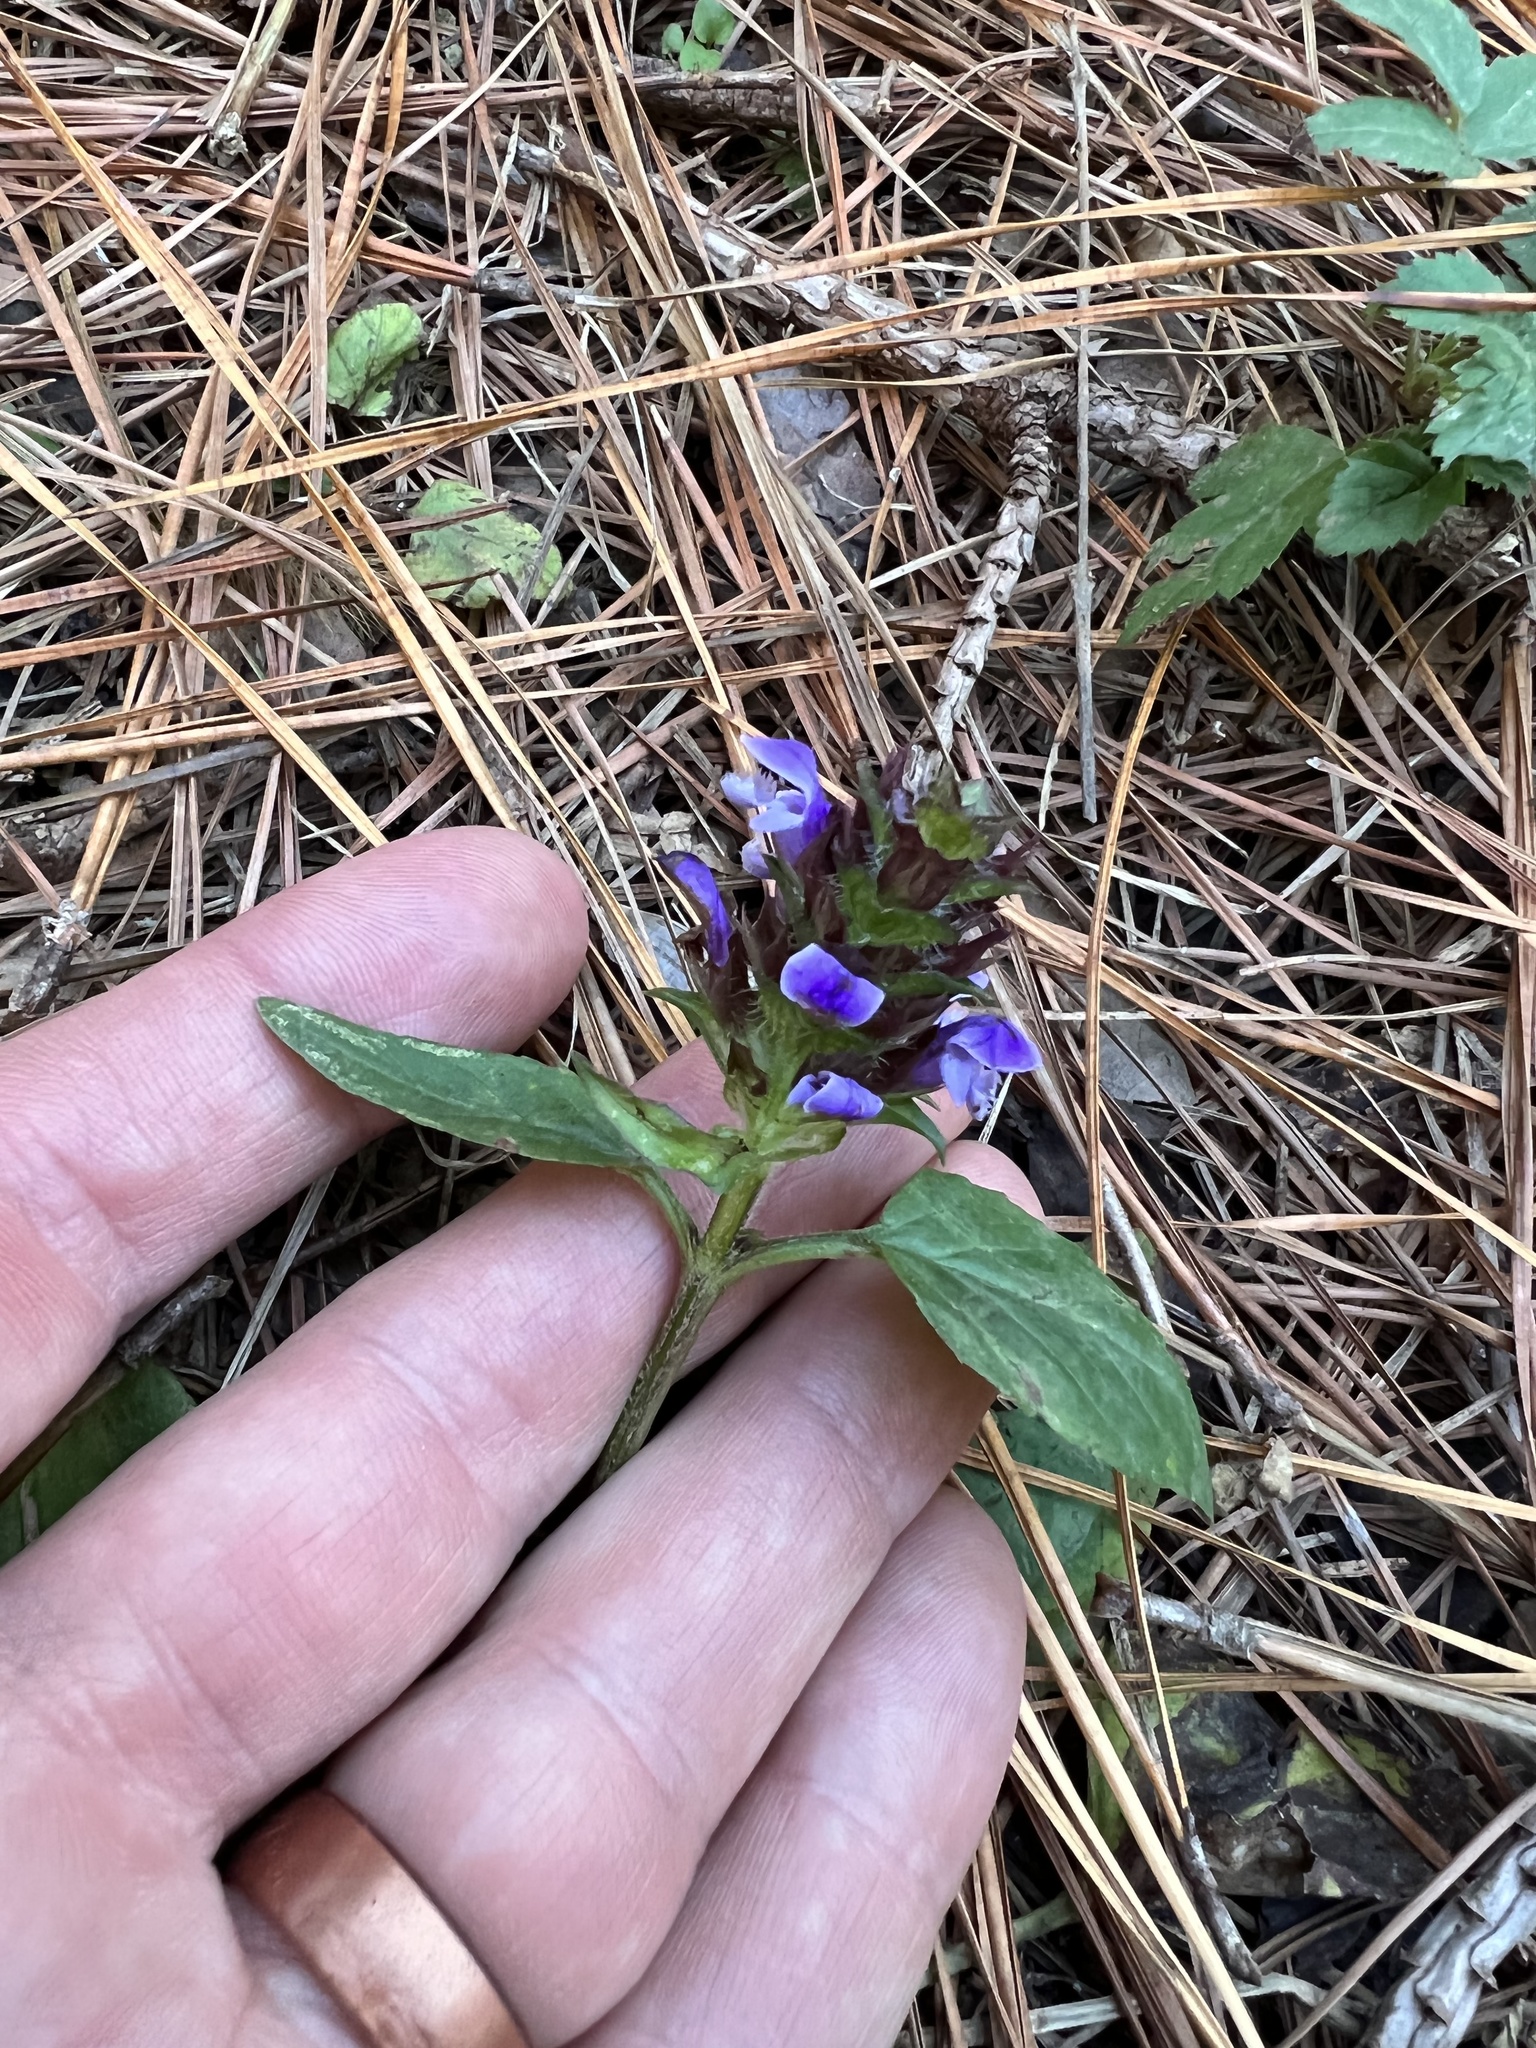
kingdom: Plantae
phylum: Tracheophyta
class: Magnoliopsida
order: Lamiales
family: Lamiaceae
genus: Prunella
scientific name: Prunella vulgaris
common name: Heal-all
